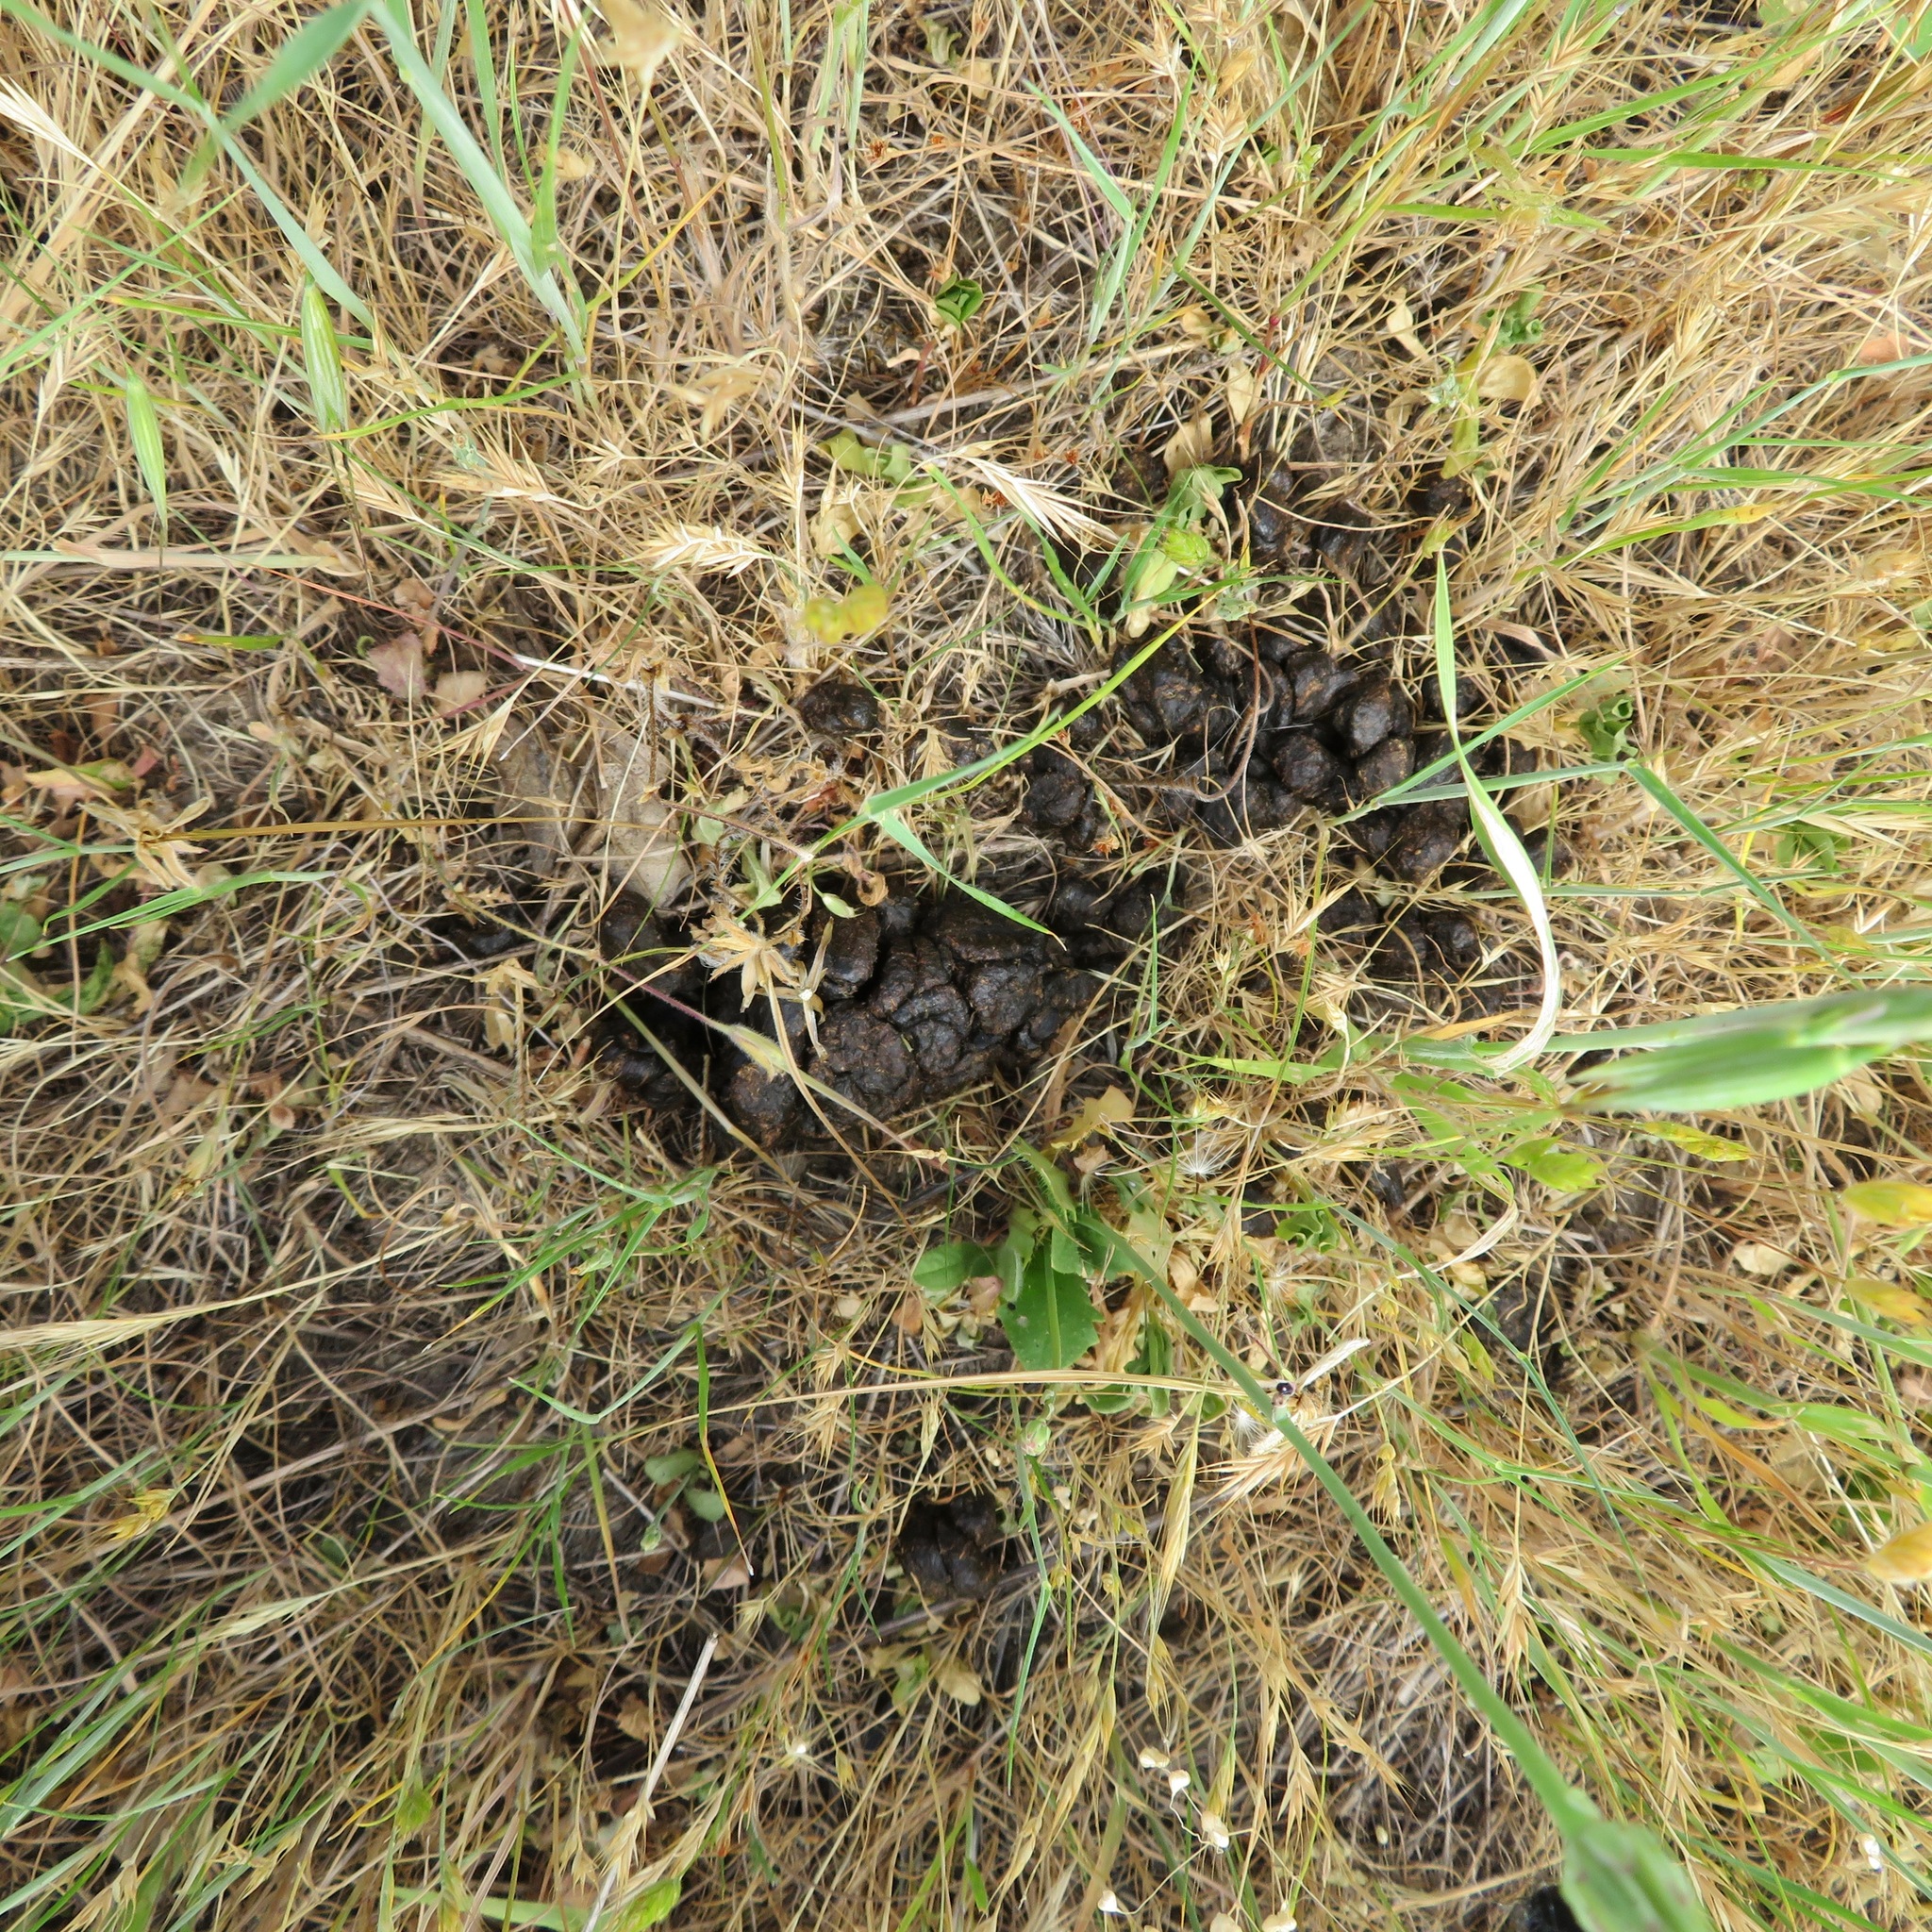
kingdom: Animalia
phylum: Chordata
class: Mammalia
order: Artiodactyla
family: Cervidae
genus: Odocoileus
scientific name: Odocoileus hemionus
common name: Mule deer
